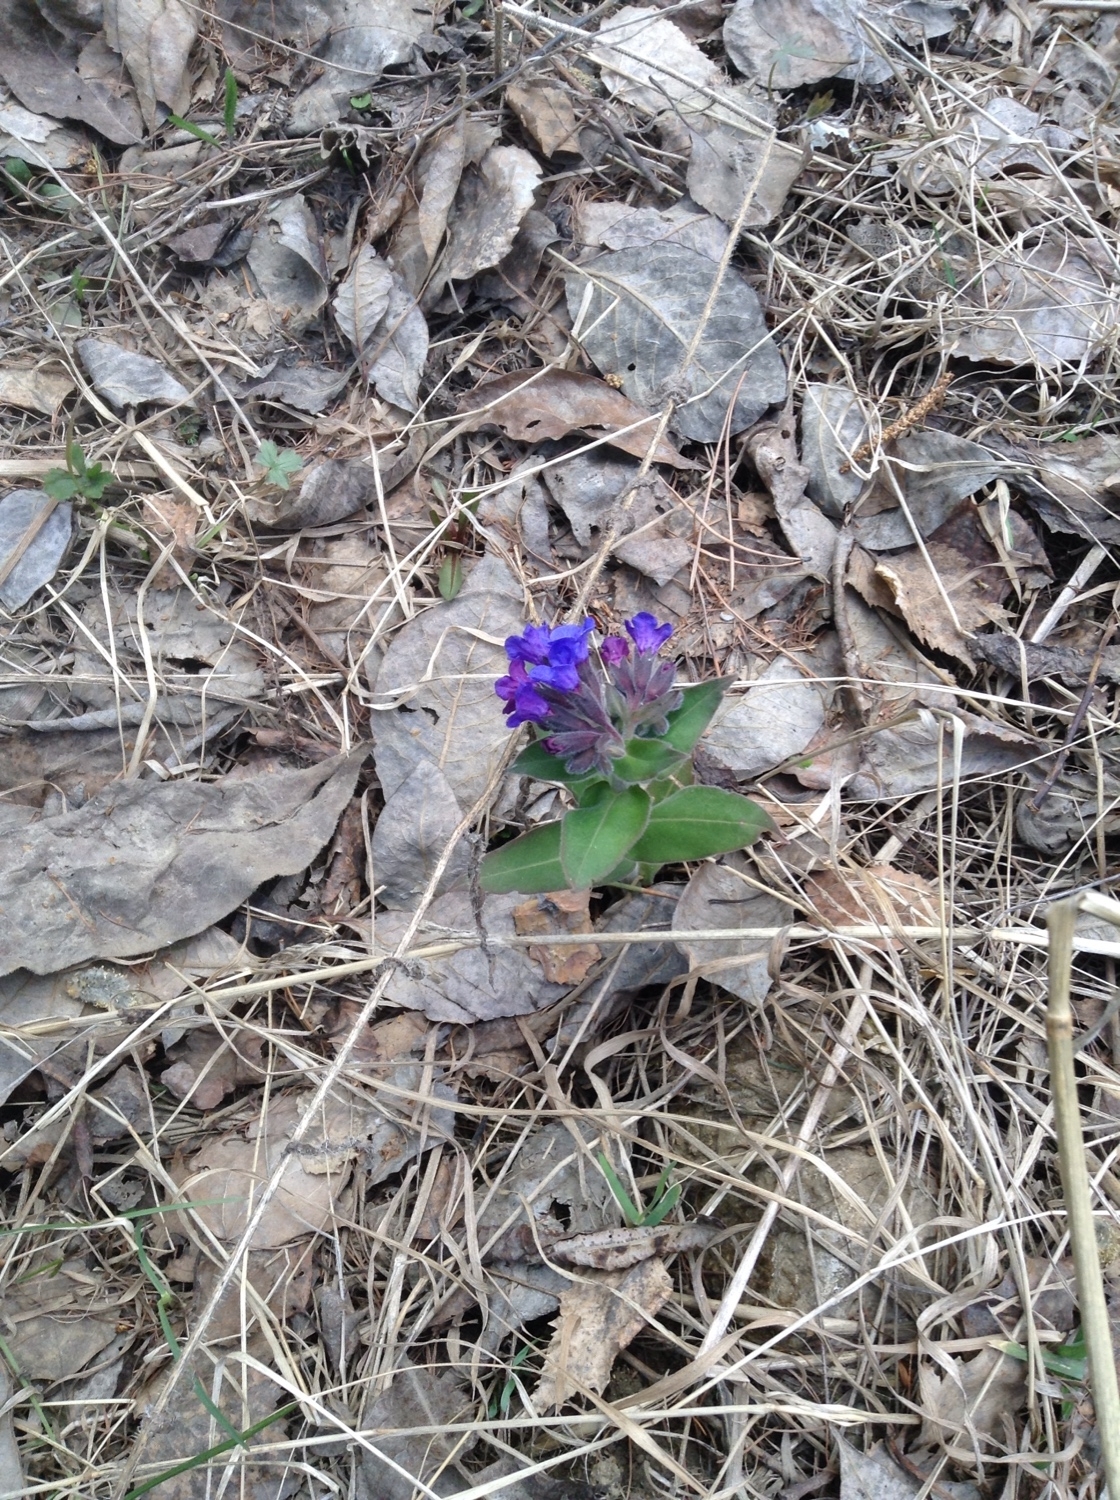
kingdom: Plantae
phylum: Tracheophyta
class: Magnoliopsida
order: Boraginales
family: Boraginaceae
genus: Pulmonaria
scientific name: Pulmonaria mollis
